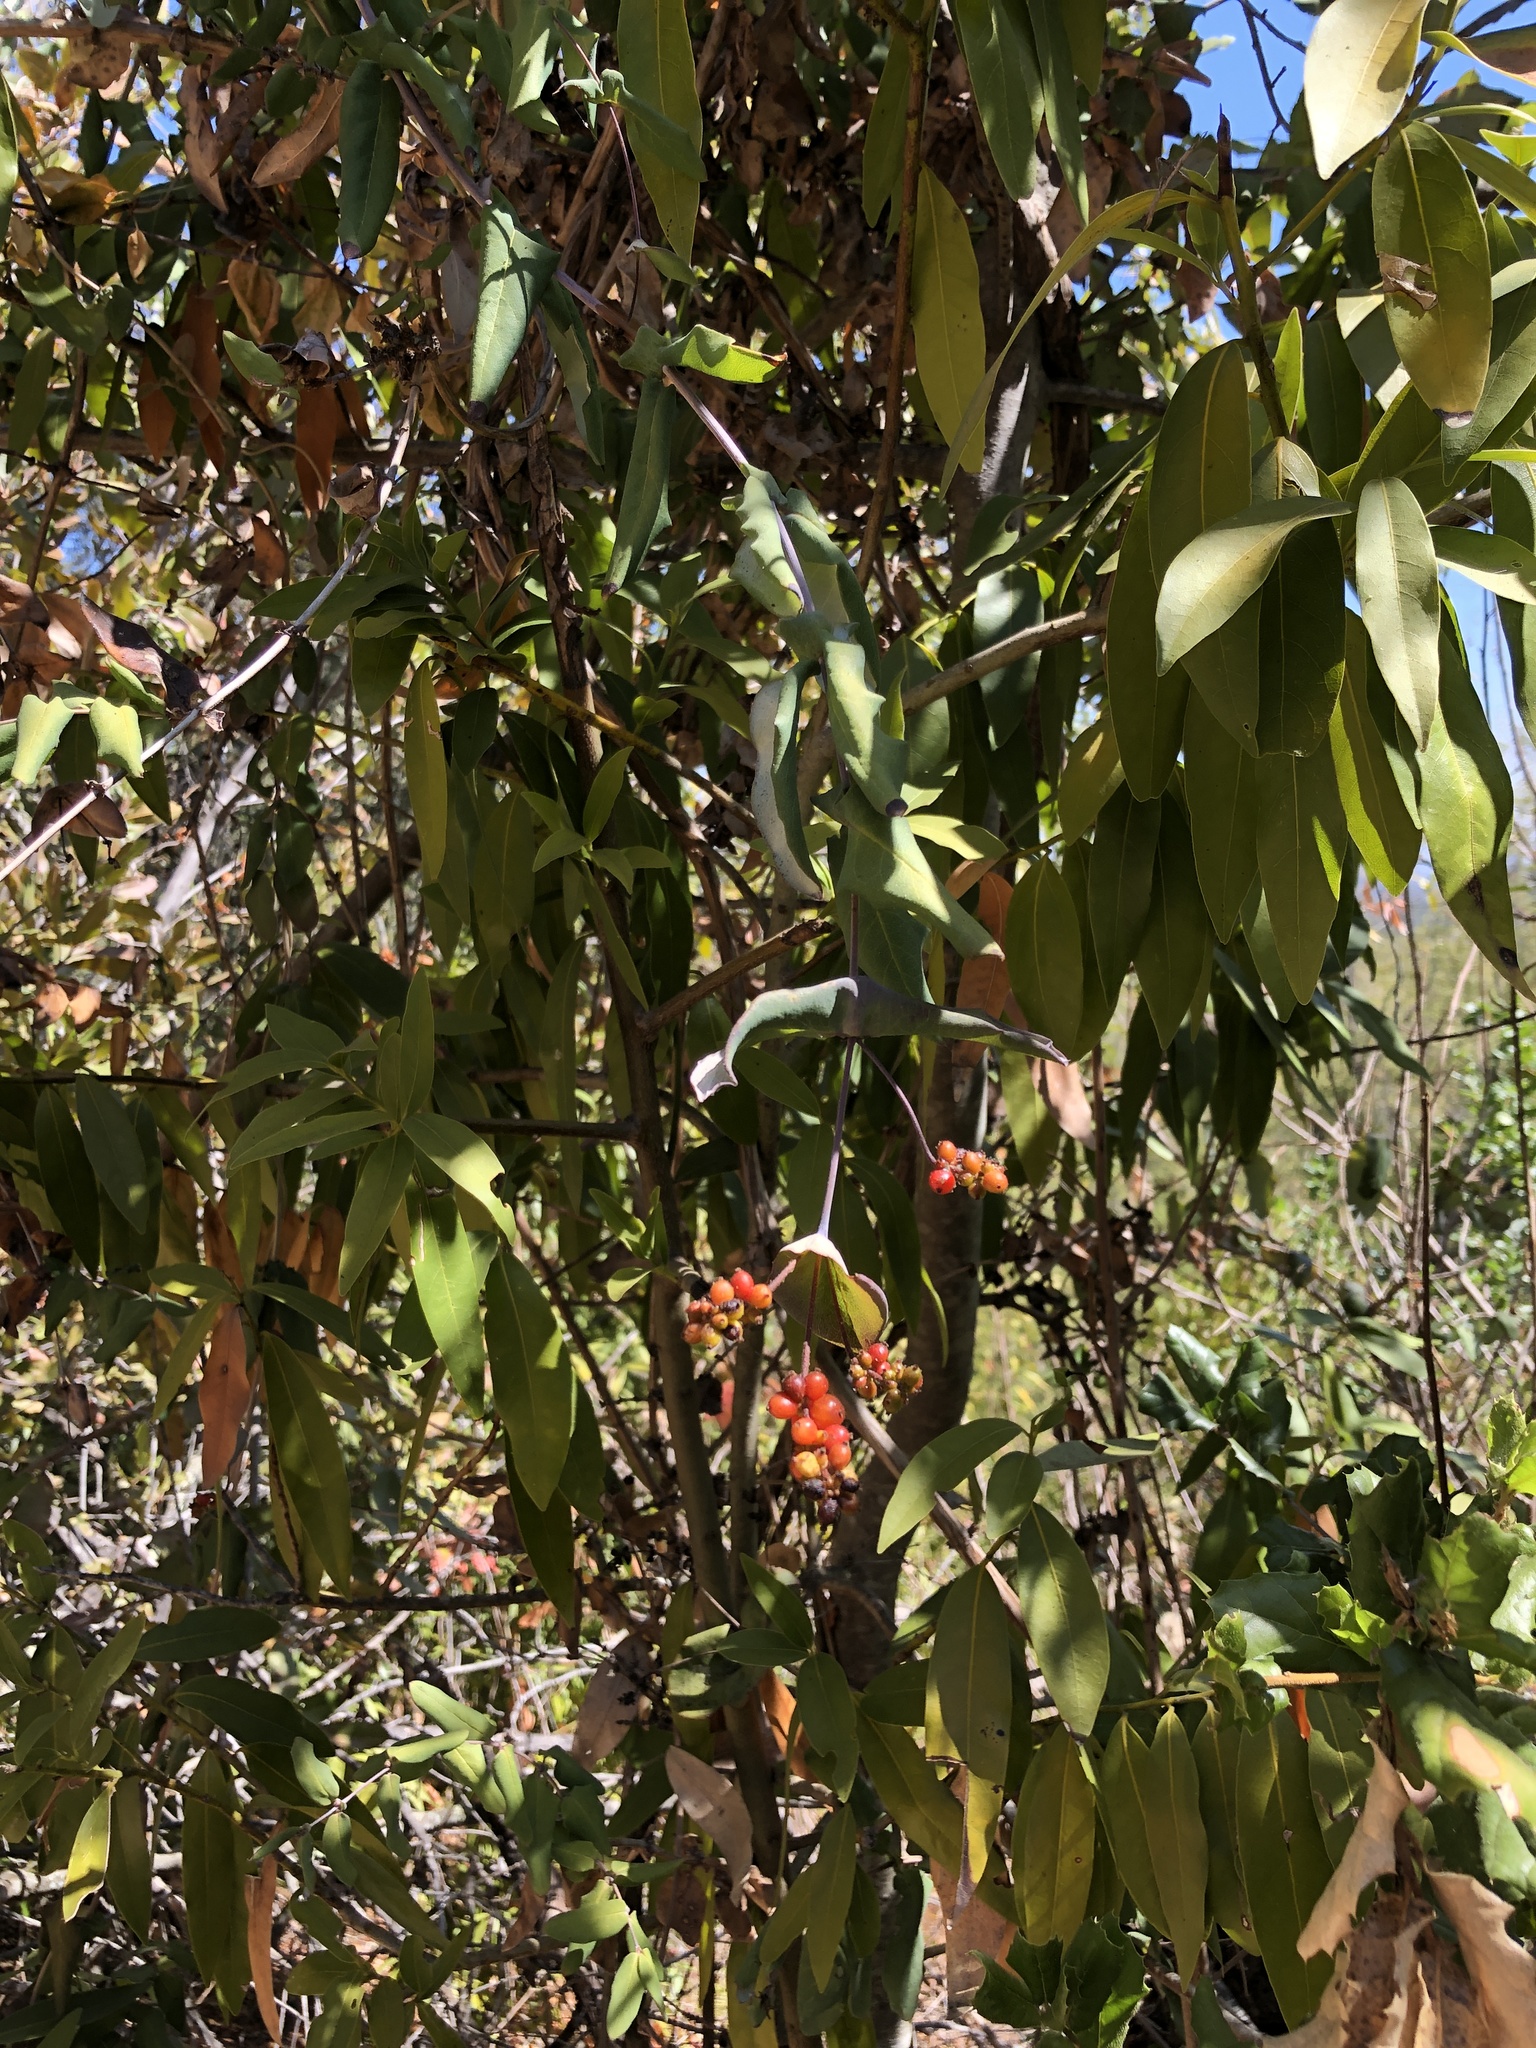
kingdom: Plantae
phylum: Tracheophyta
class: Magnoliopsida
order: Dipsacales
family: Caprifoliaceae
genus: Lonicera
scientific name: Lonicera hispidula
